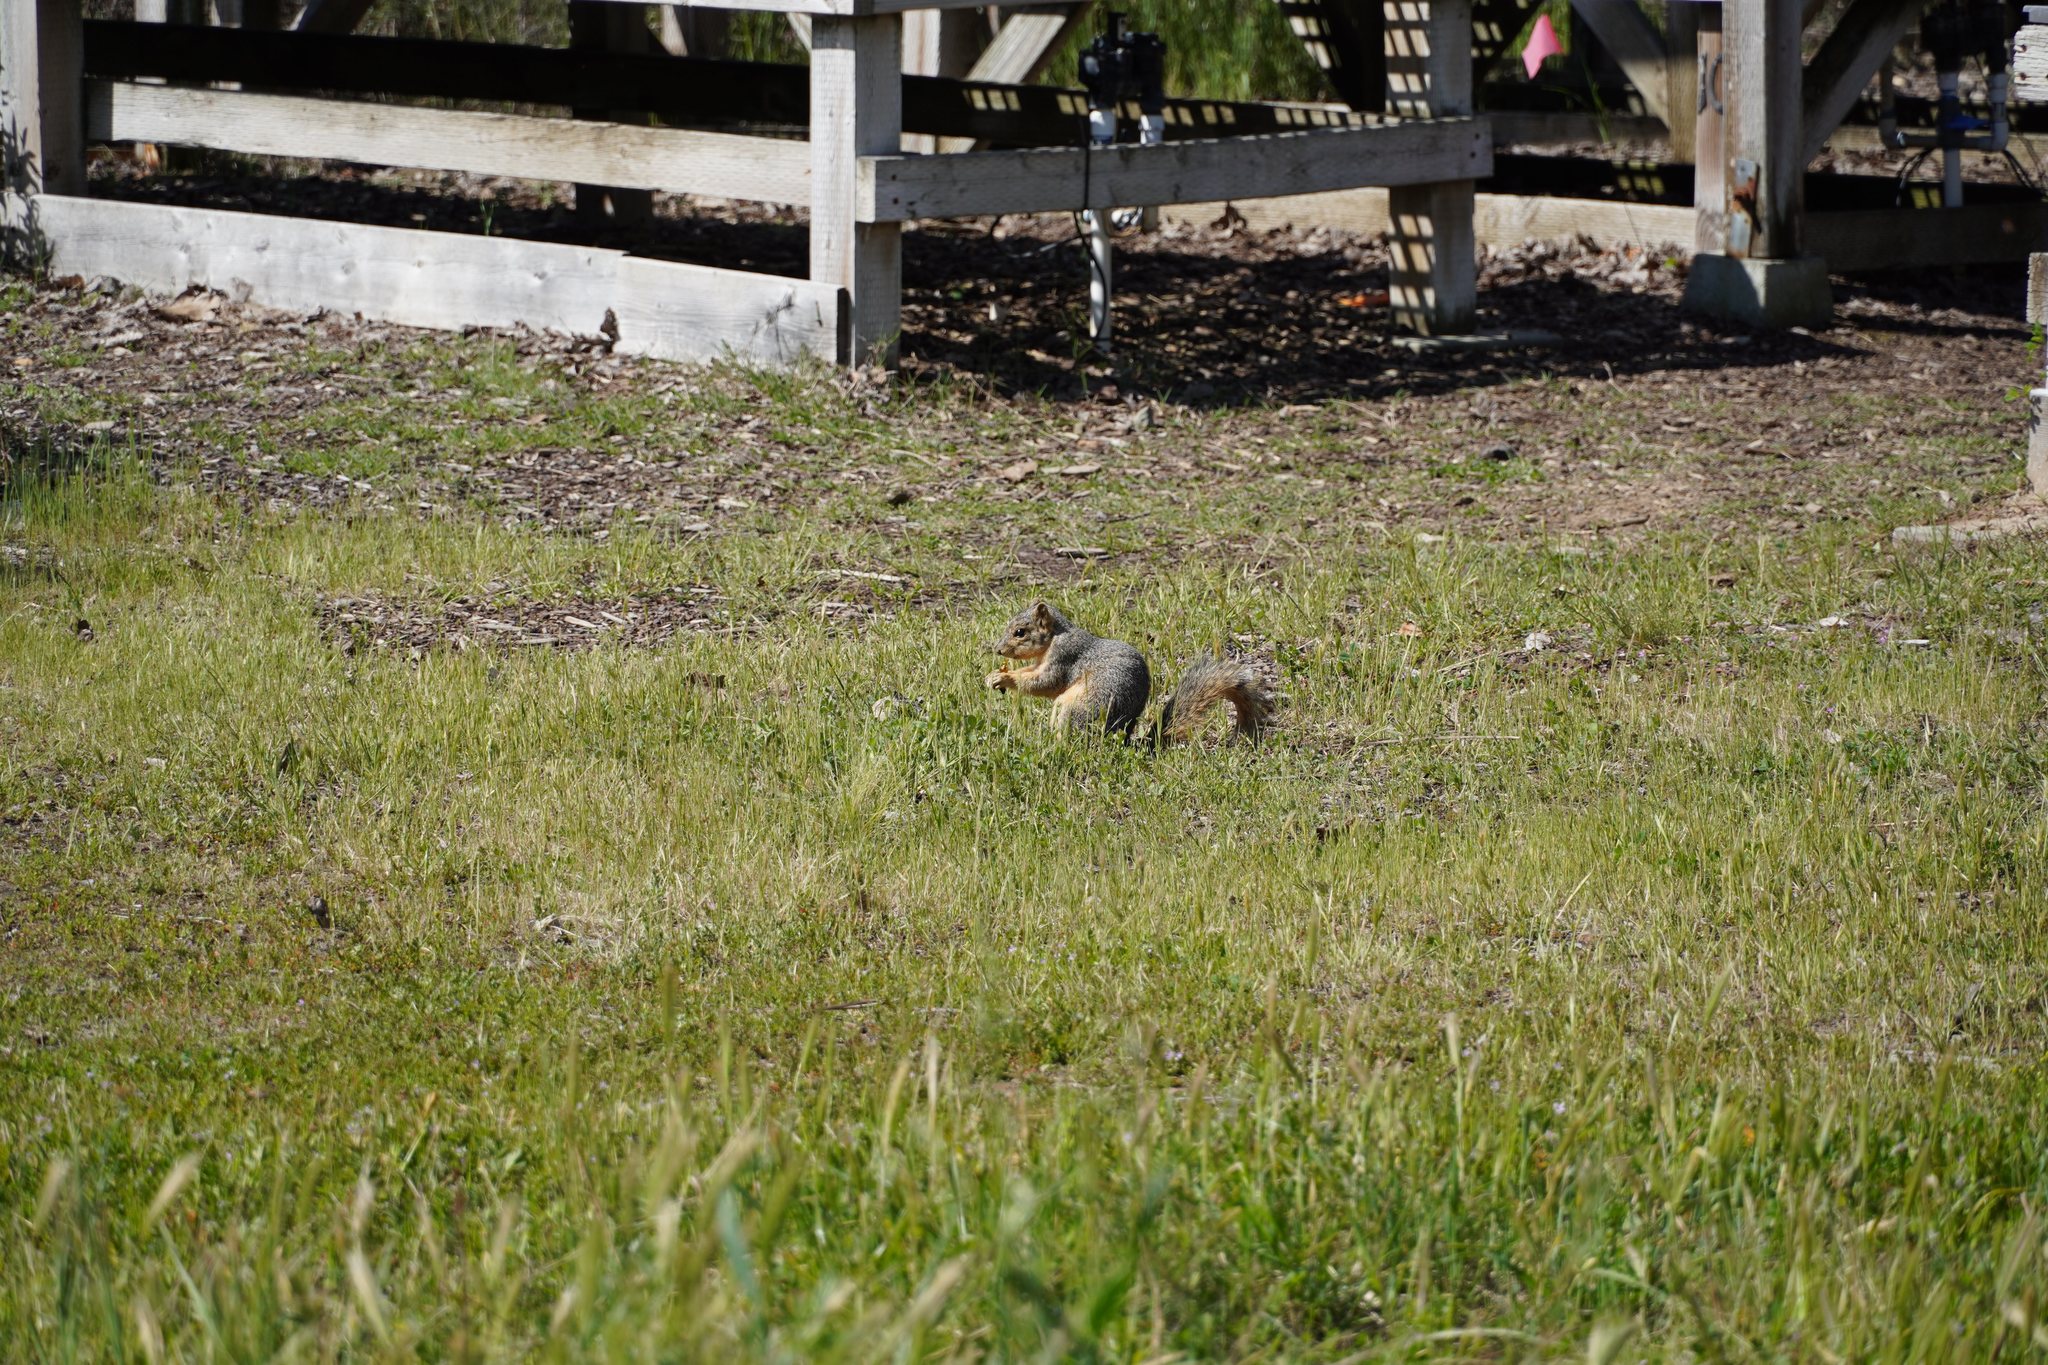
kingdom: Animalia
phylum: Chordata
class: Mammalia
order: Rodentia
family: Sciuridae
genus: Sciurus
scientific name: Sciurus niger
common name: Fox squirrel
